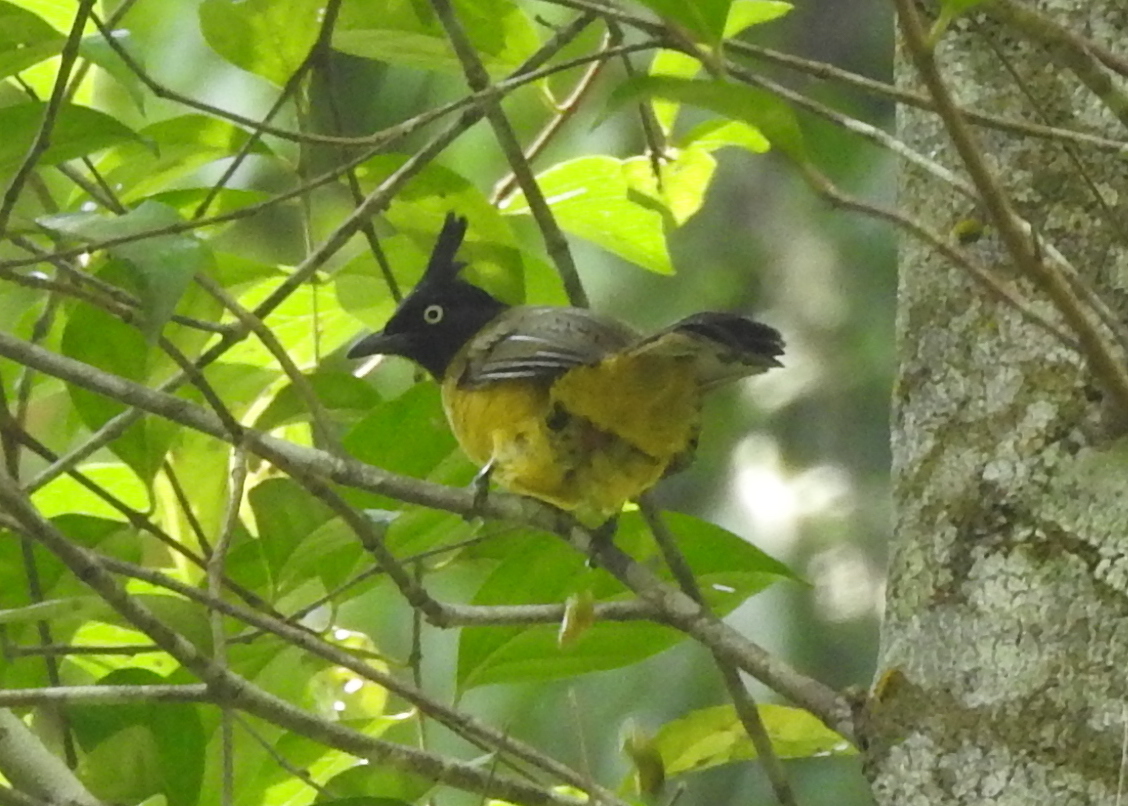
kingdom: Animalia
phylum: Chordata
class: Aves
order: Passeriformes
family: Pycnonotidae
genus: Pycnonotus
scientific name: Pycnonotus flaviventris
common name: Black-crested bulbul
